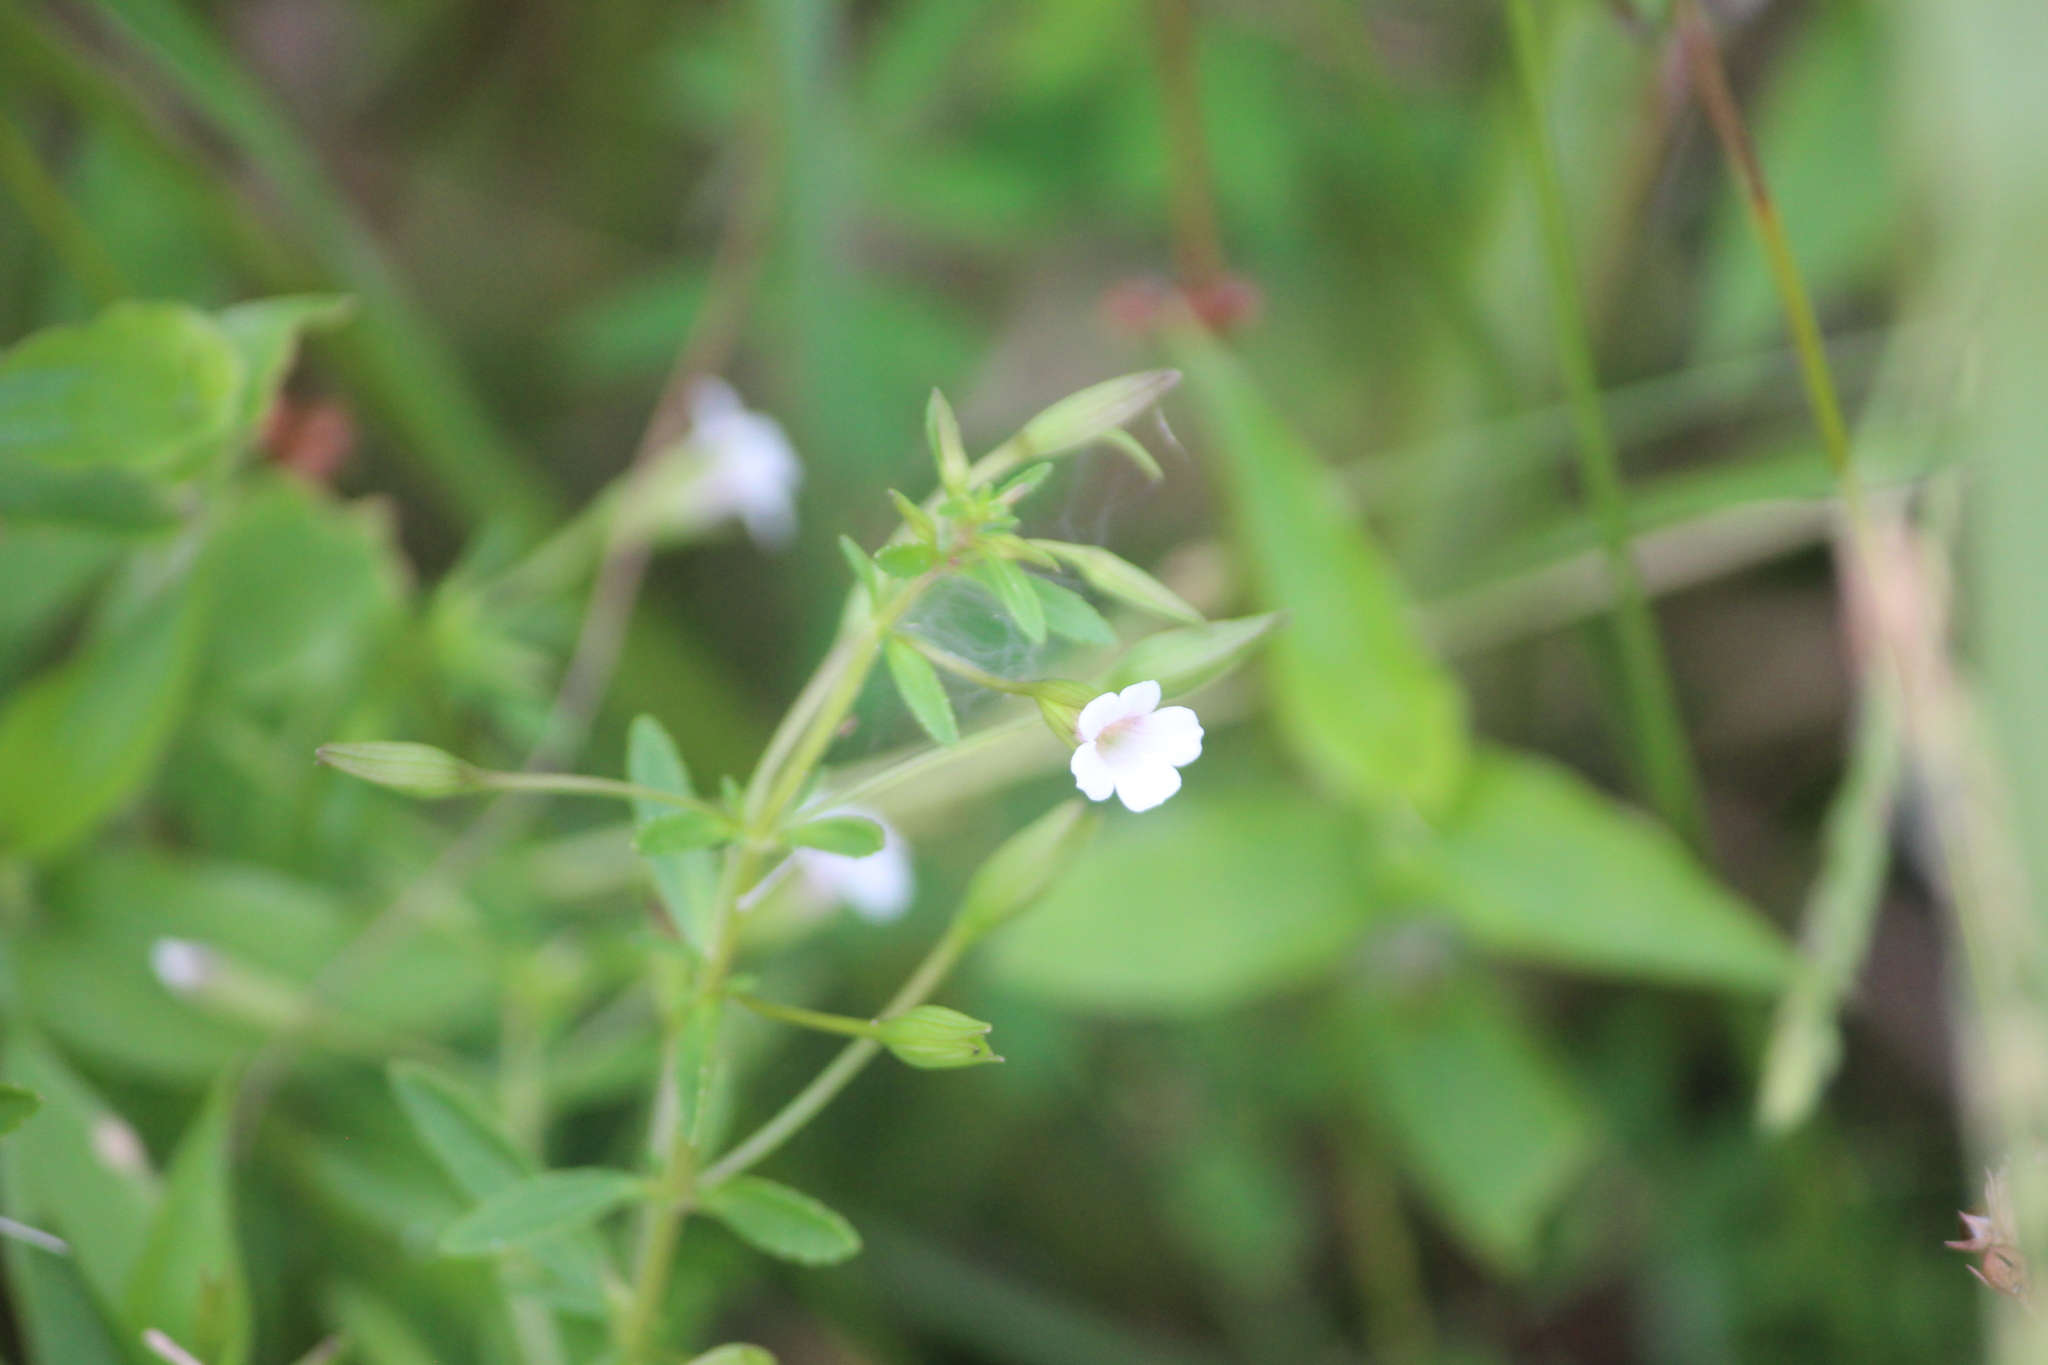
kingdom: Plantae
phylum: Tracheophyta
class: Magnoliopsida
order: Lamiales
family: Plantaginaceae
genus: Mecardonia
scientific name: Mecardonia acuminata
